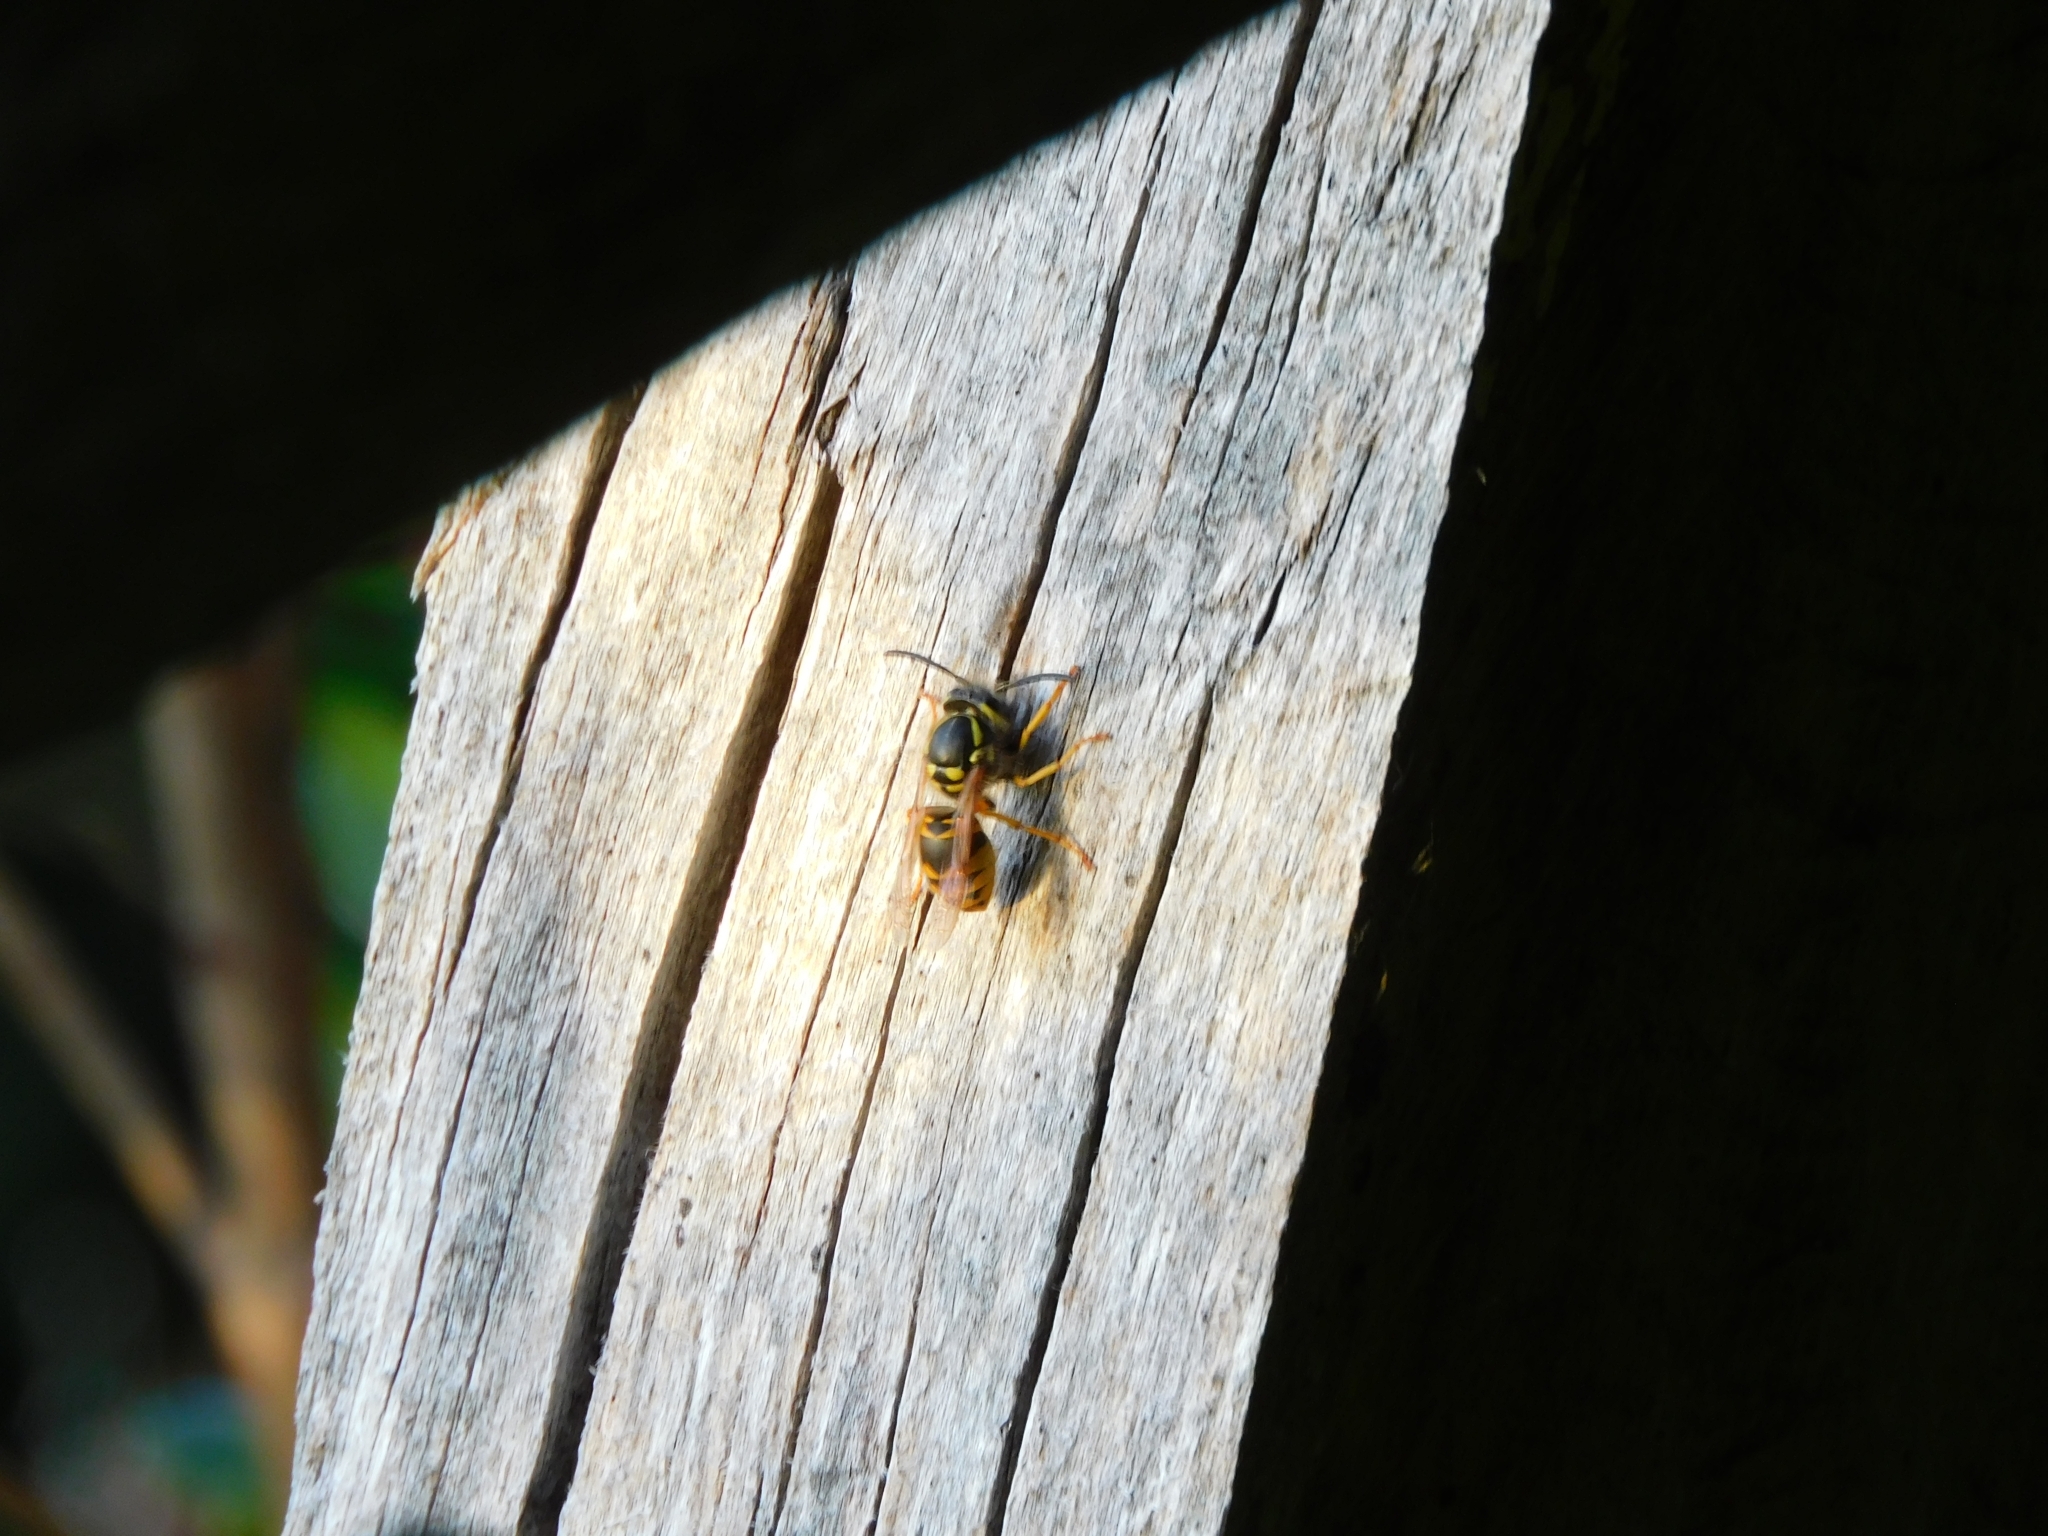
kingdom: Animalia
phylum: Arthropoda
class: Insecta
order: Hymenoptera
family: Vespidae
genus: Vespula
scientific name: Vespula germanica
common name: German wasp
